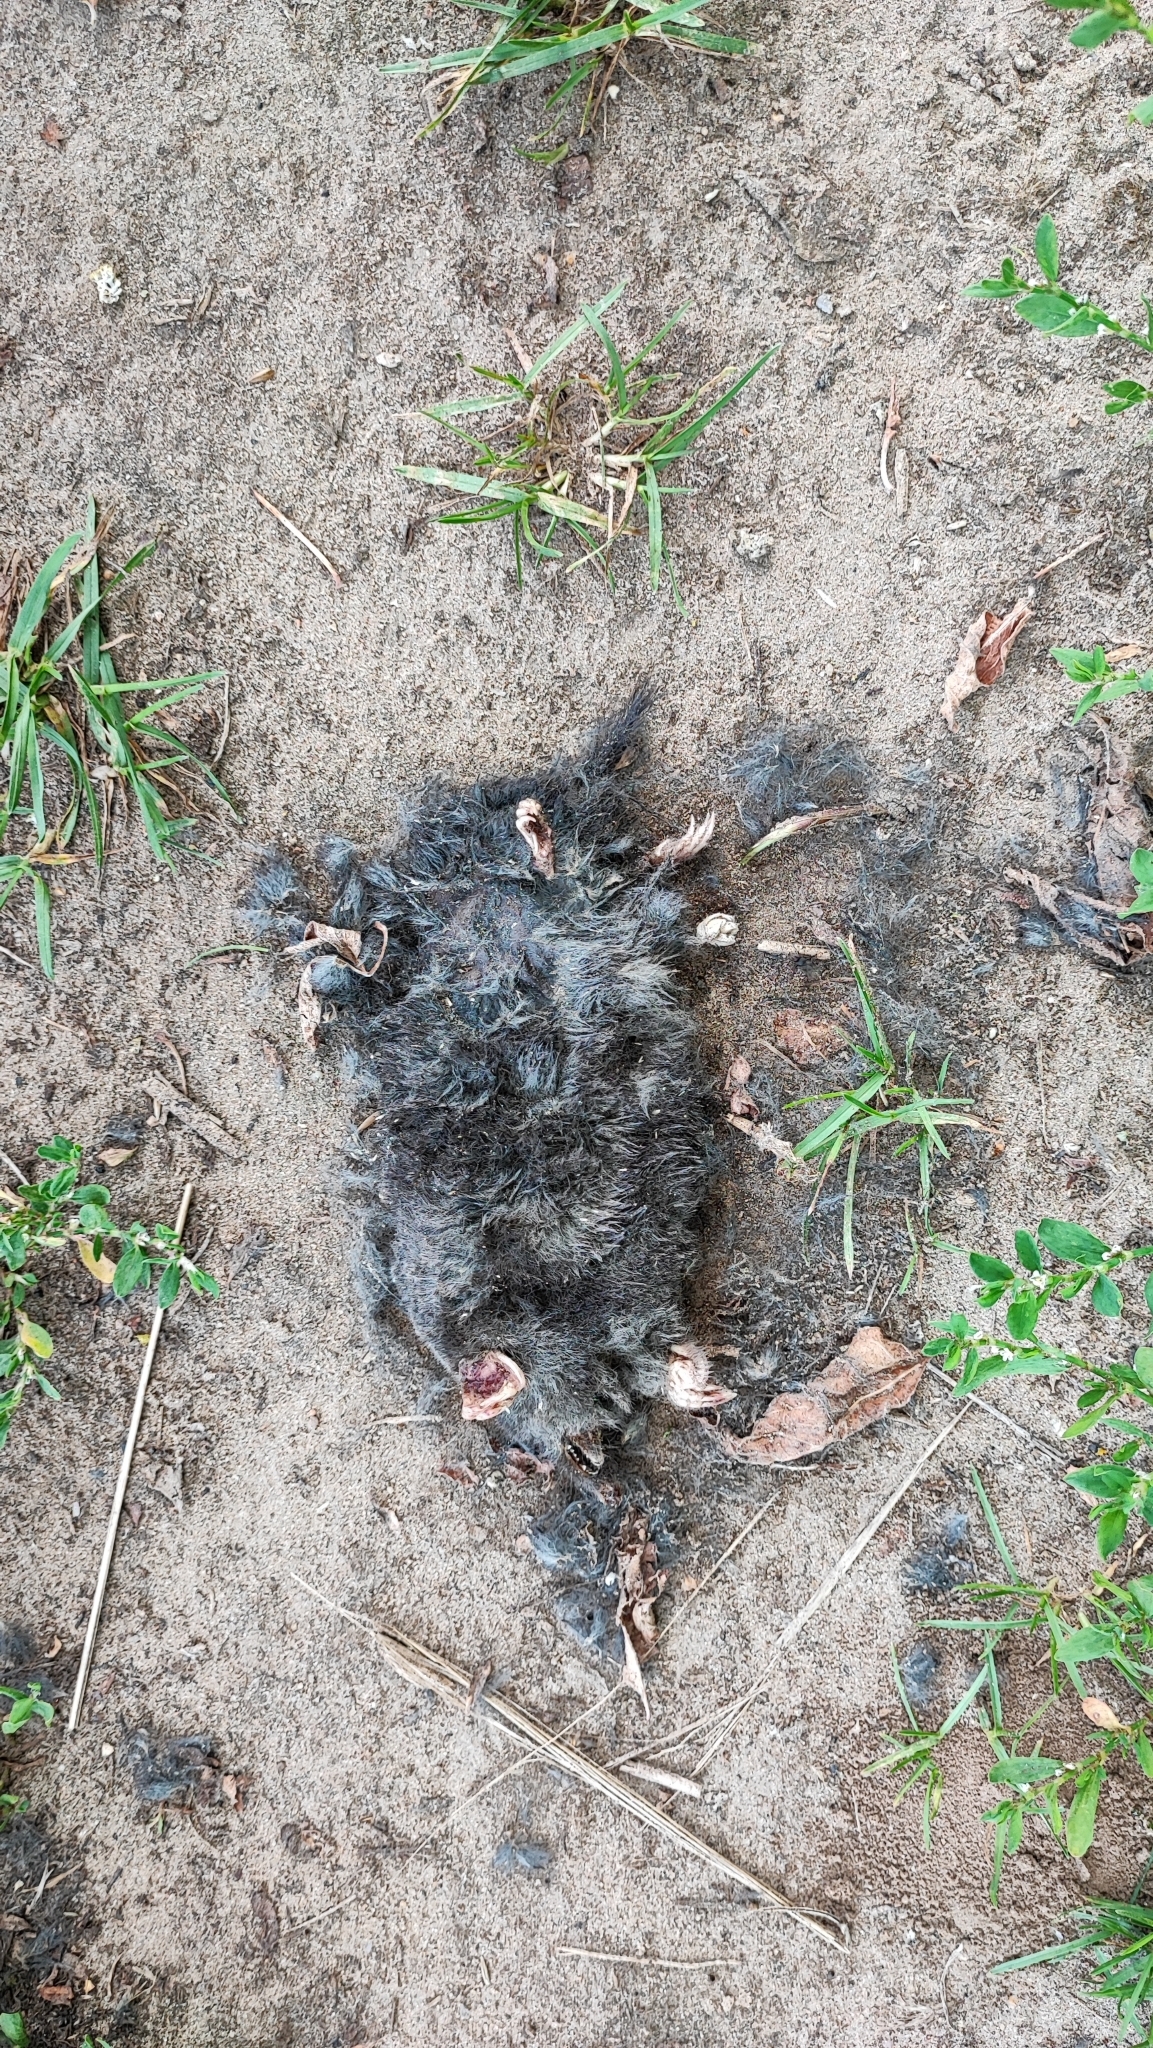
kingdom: Animalia
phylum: Chordata
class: Mammalia
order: Soricomorpha
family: Talpidae
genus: Talpa
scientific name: Talpa europaea
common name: European mole
